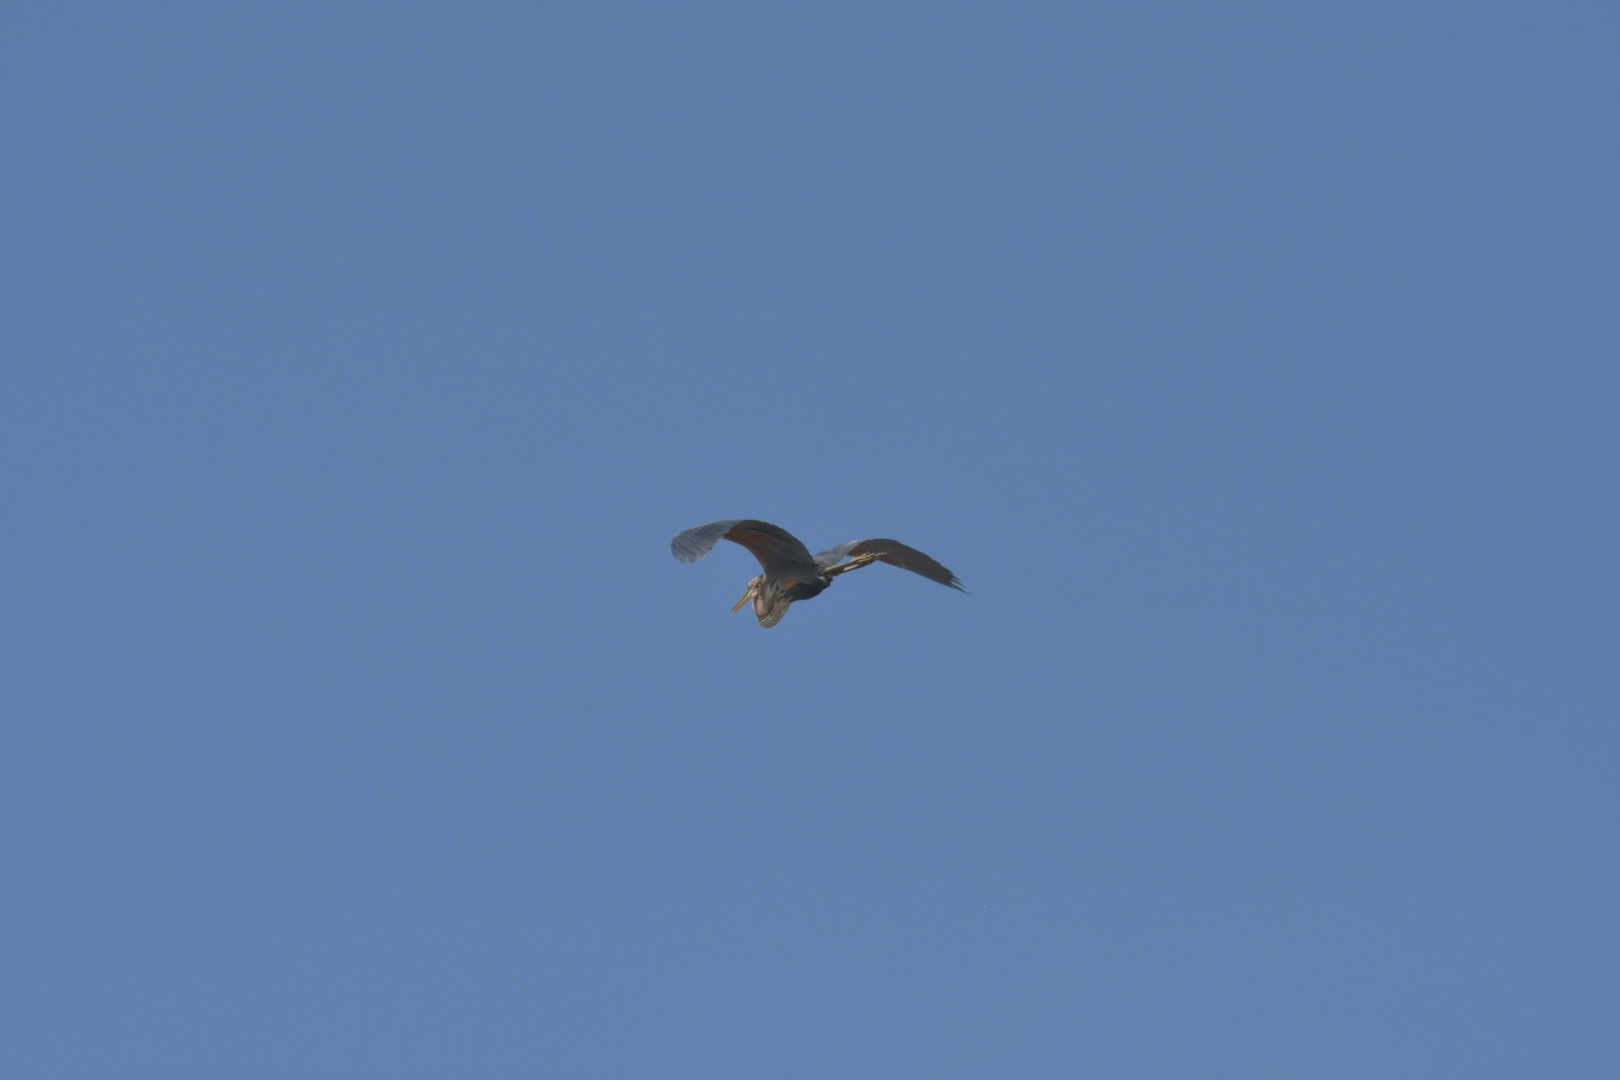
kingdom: Animalia
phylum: Chordata
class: Aves
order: Pelecaniformes
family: Ardeidae
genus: Ardea
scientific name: Ardea purpurea
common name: Purple heron
